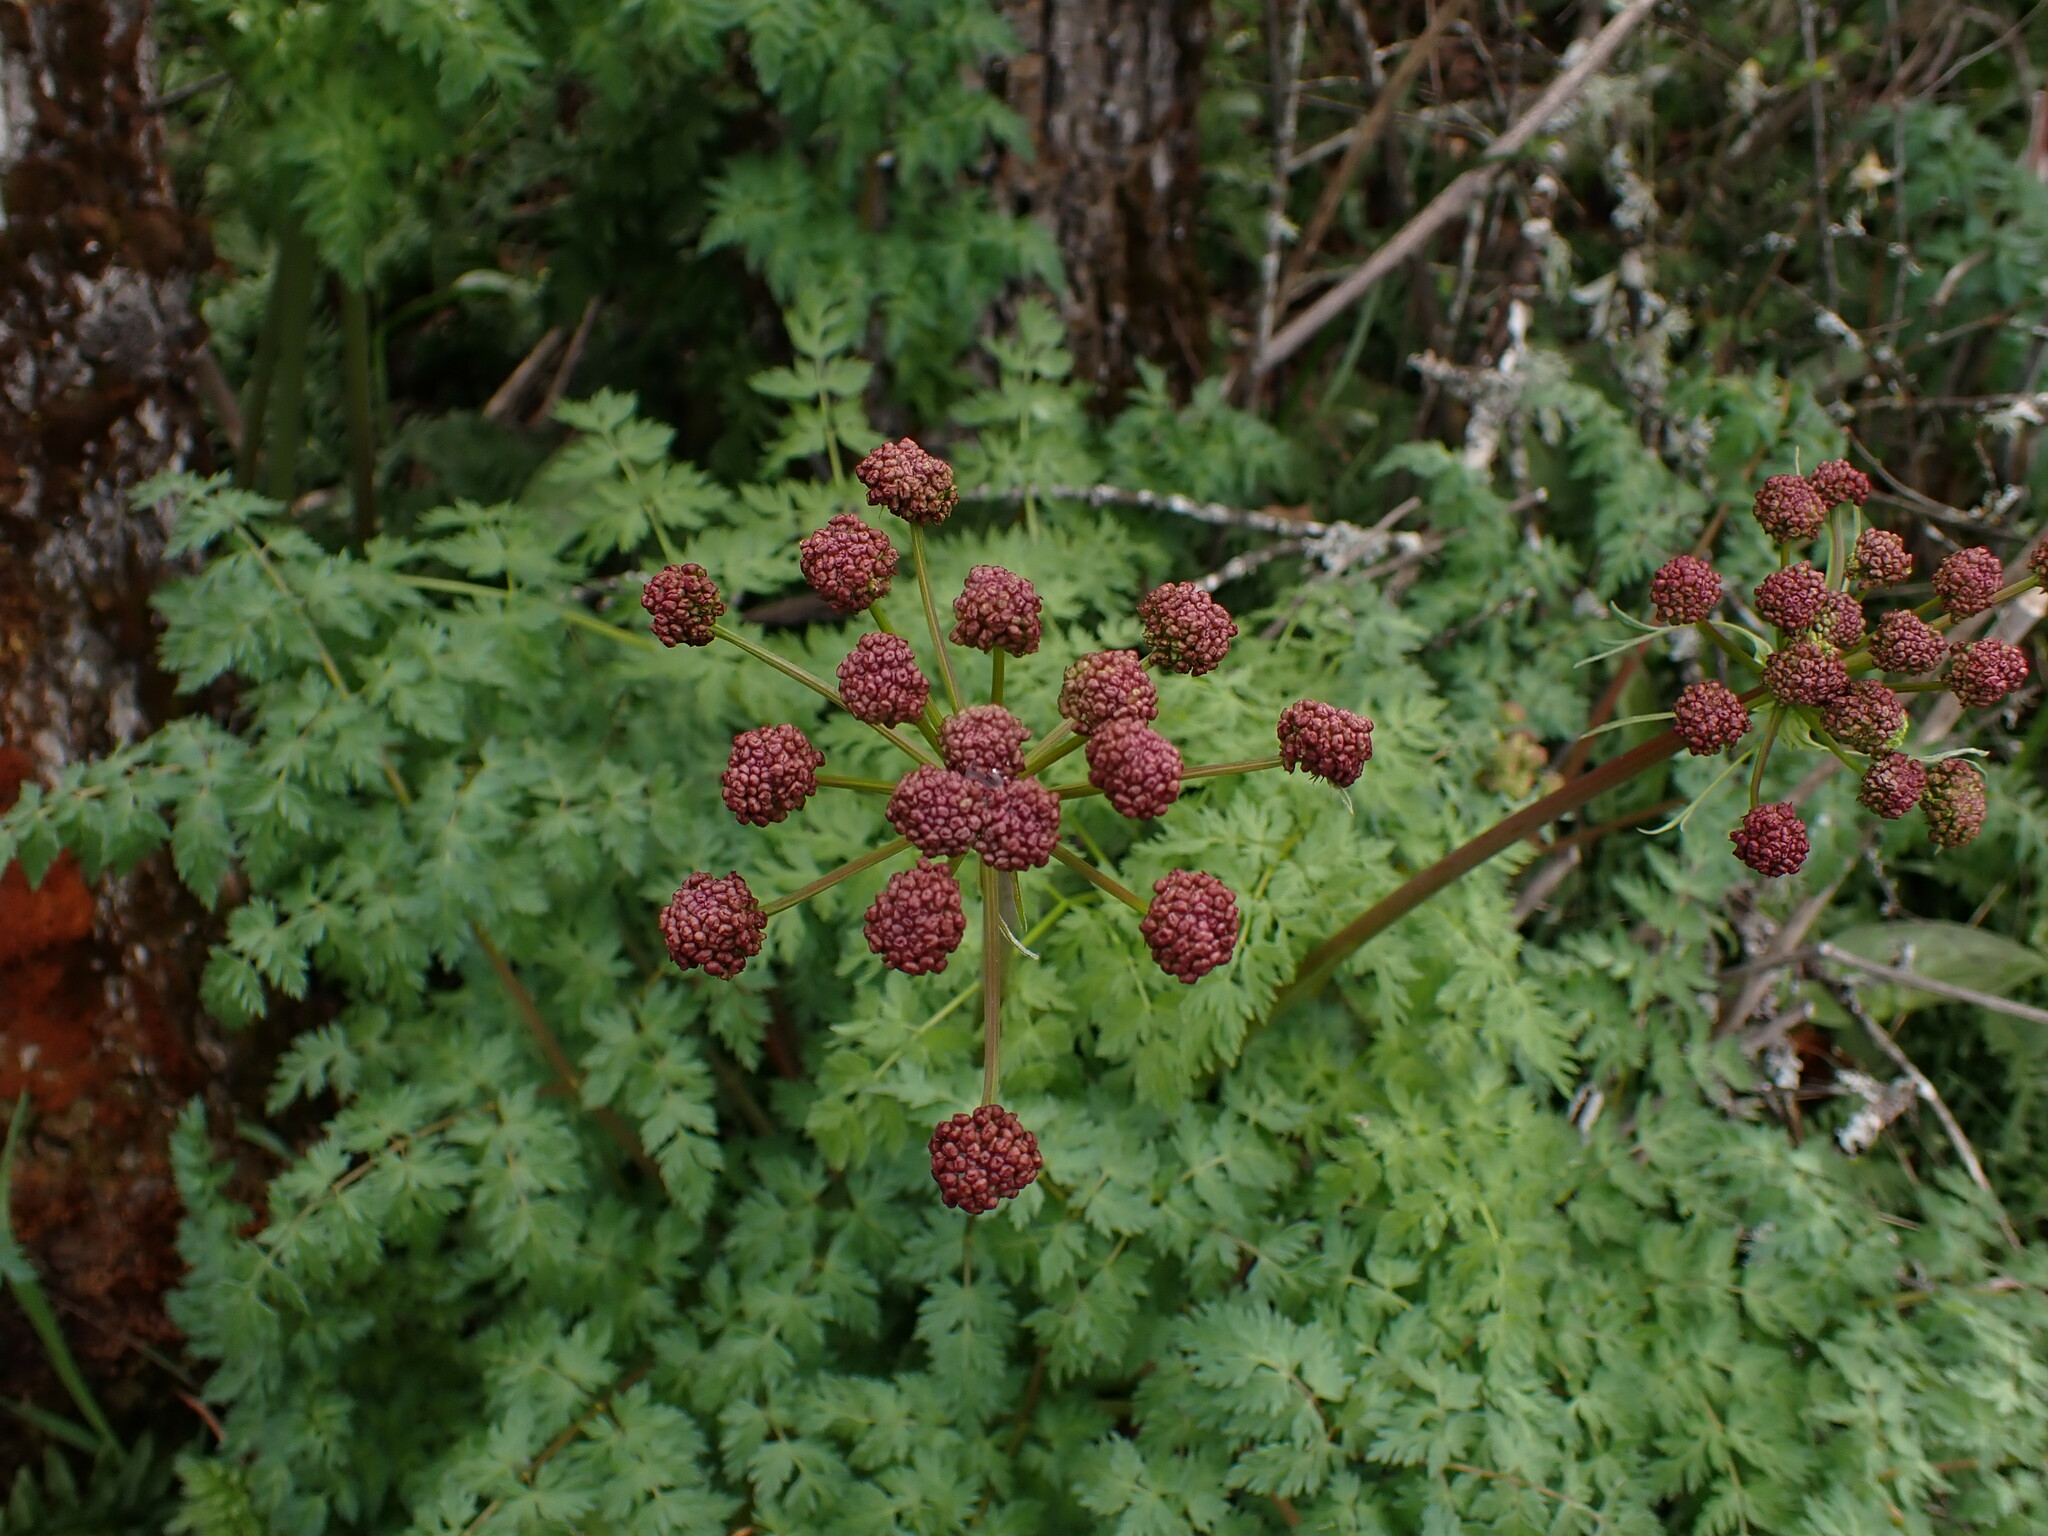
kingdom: Plantae
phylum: Tracheophyta
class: Magnoliopsida
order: Apiales
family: Apiaceae
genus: Lomatium
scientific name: Lomatium dissectum
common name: Lomatium
